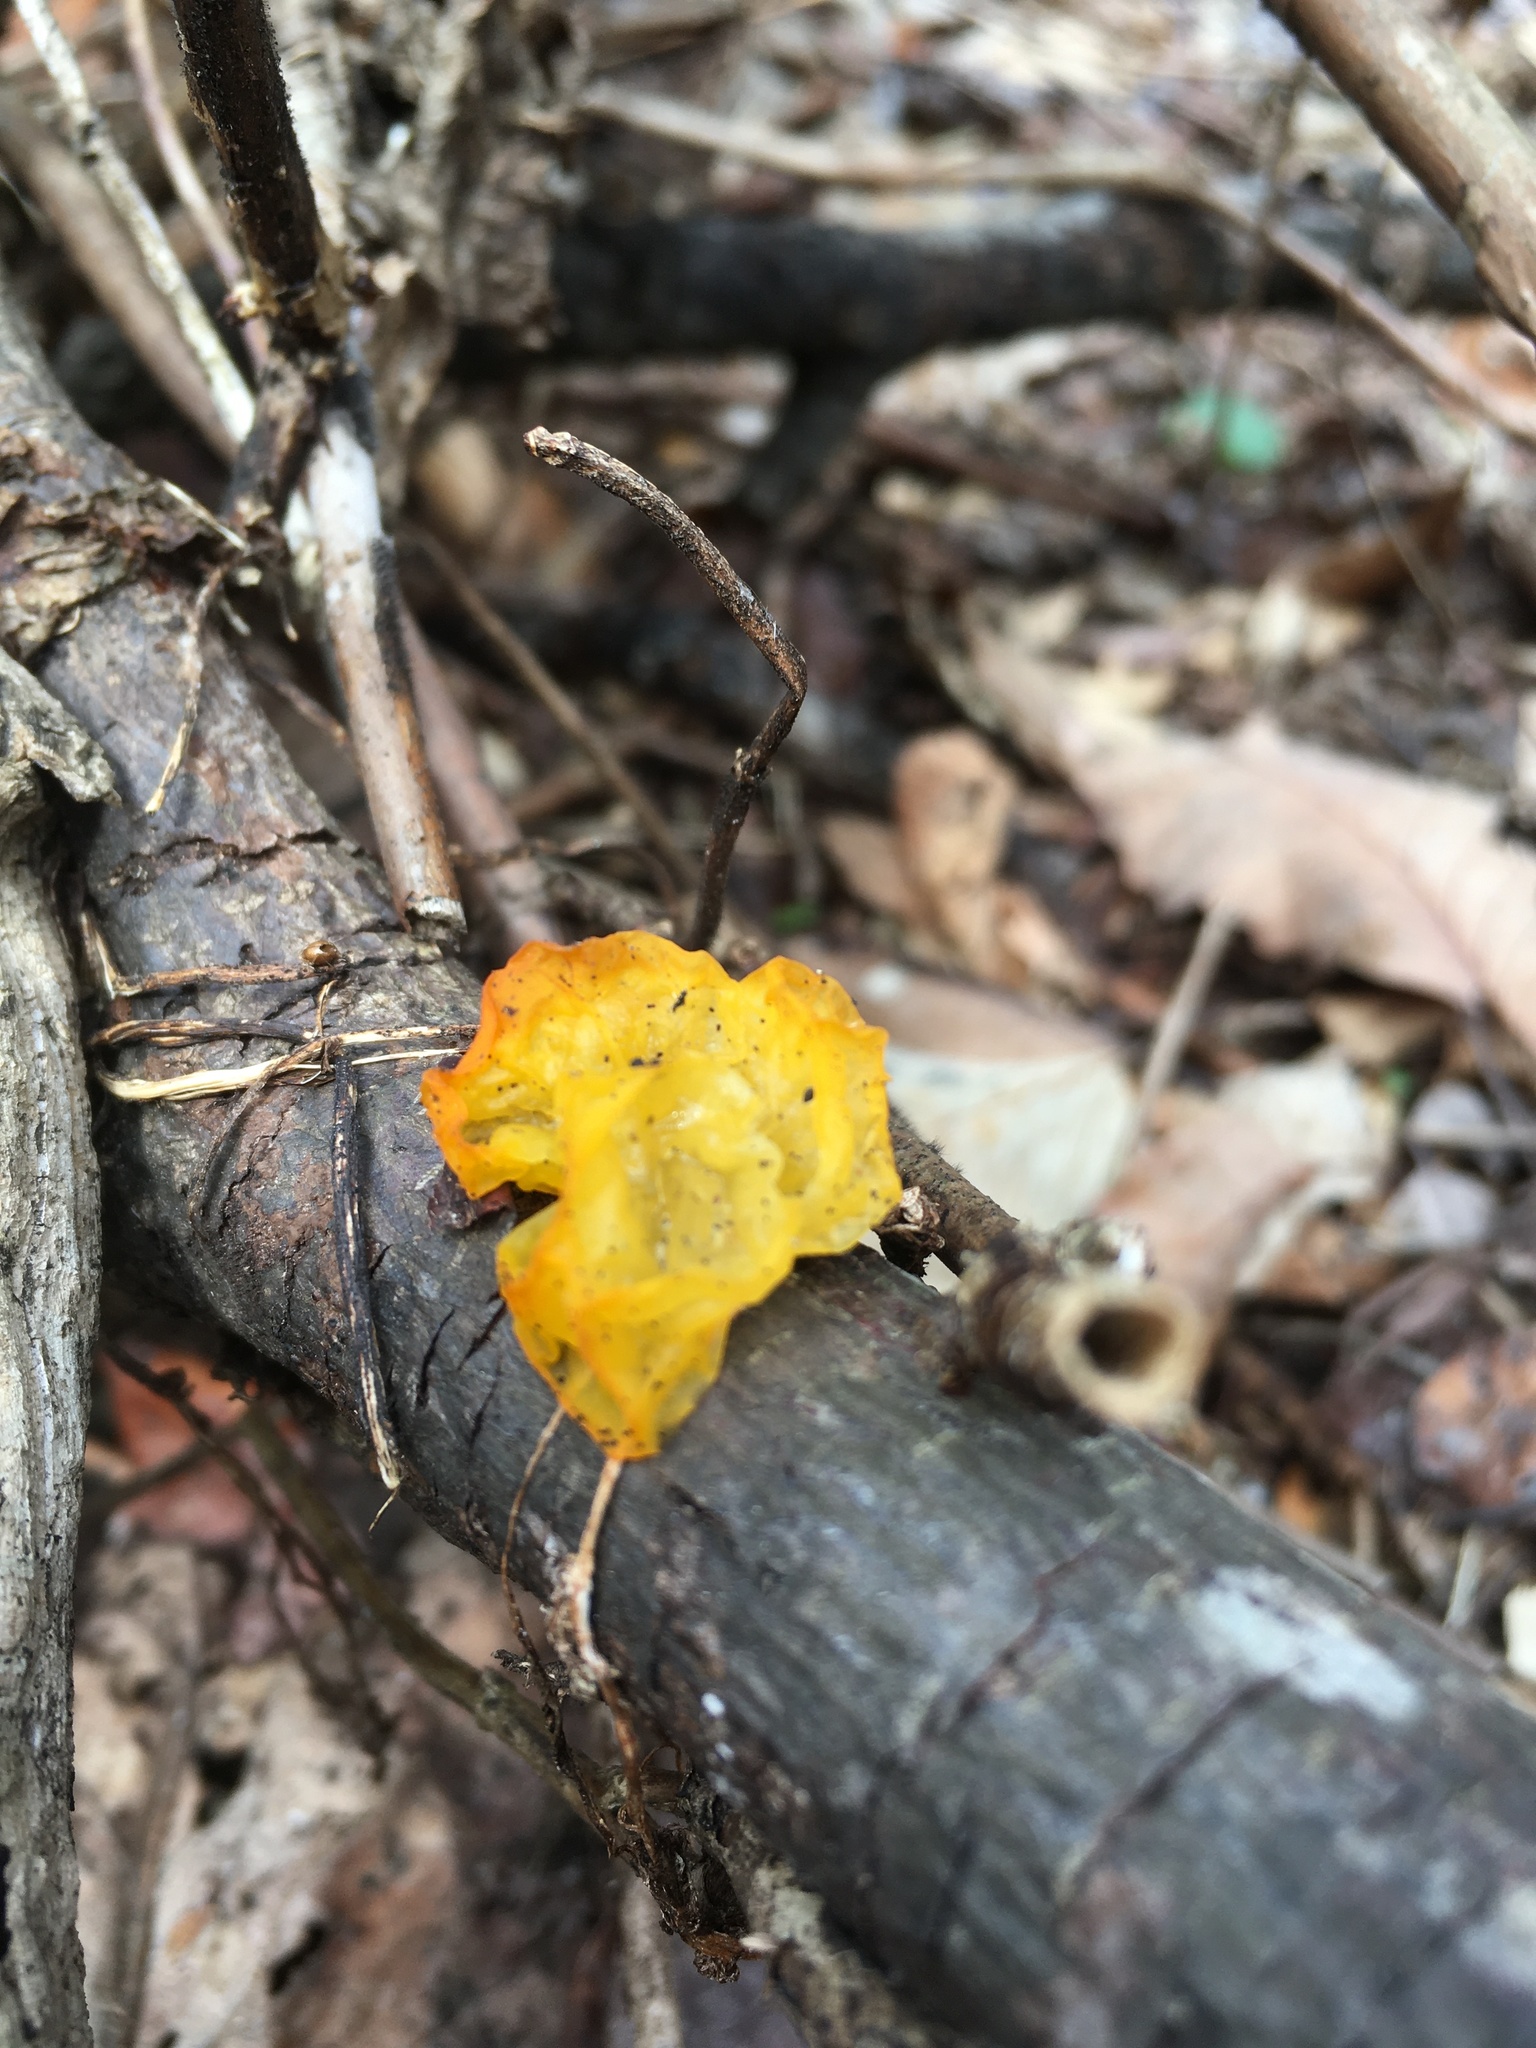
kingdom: Fungi
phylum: Basidiomycota
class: Tremellomycetes
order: Tremellales
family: Tremellaceae
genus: Tremella
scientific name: Tremella mesenterica
